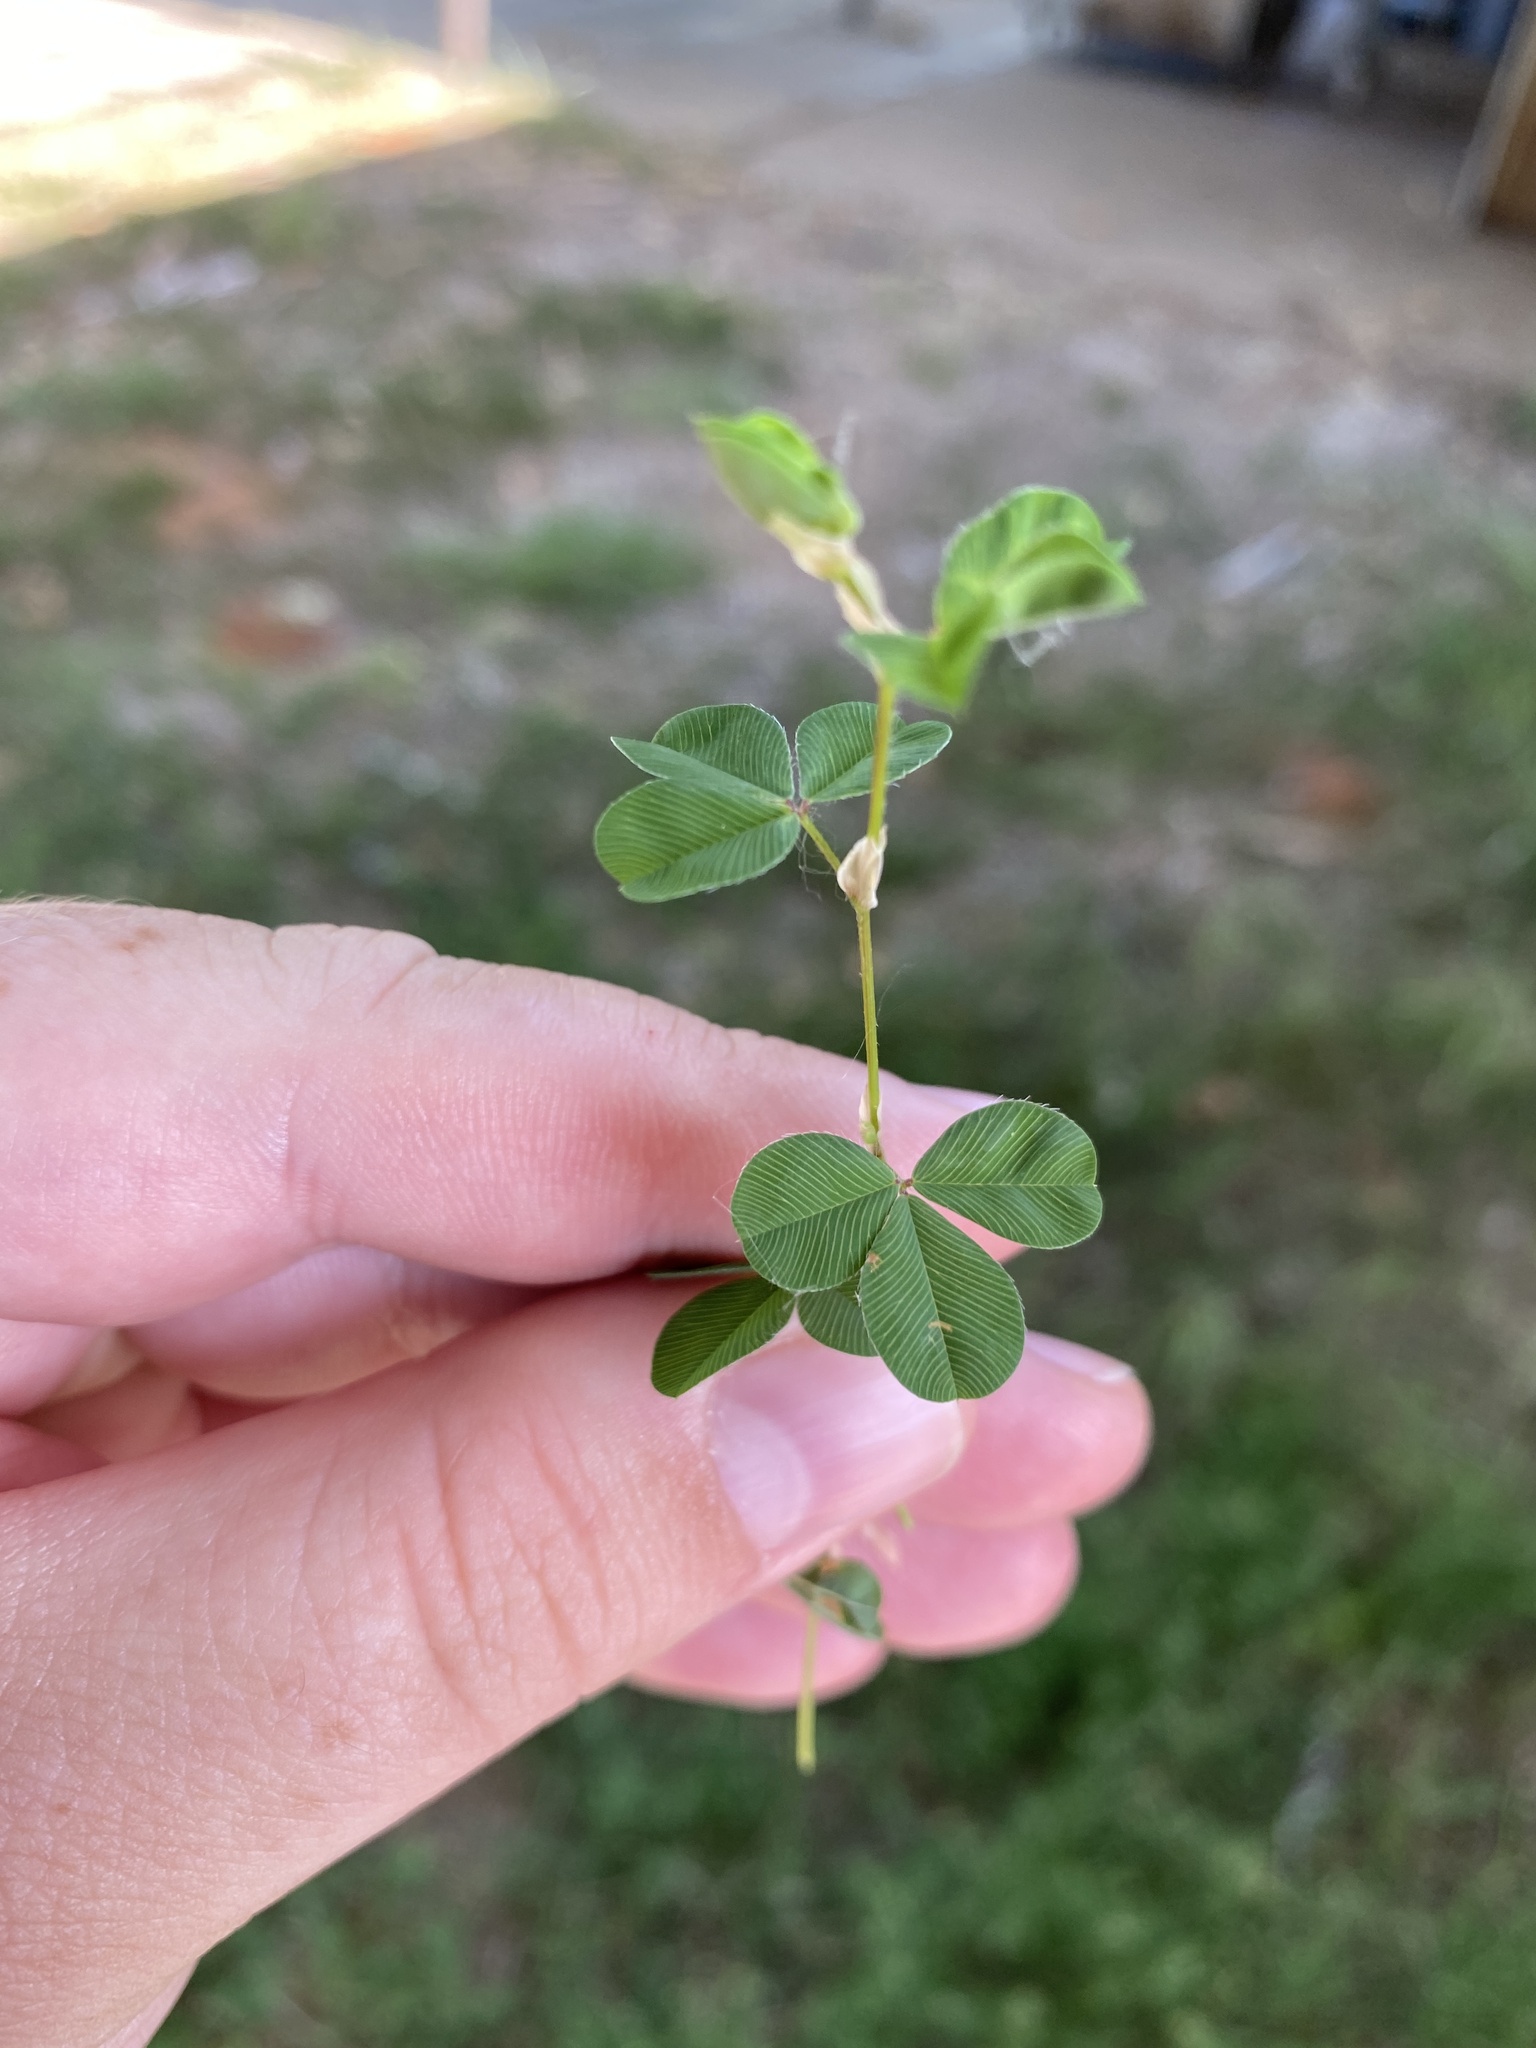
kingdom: Plantae
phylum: Tracheophyta
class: Magnoliopsida
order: Fabales
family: Fabaceae
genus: Kummerowia
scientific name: Kummerowia stipulacea
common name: Korean clover
